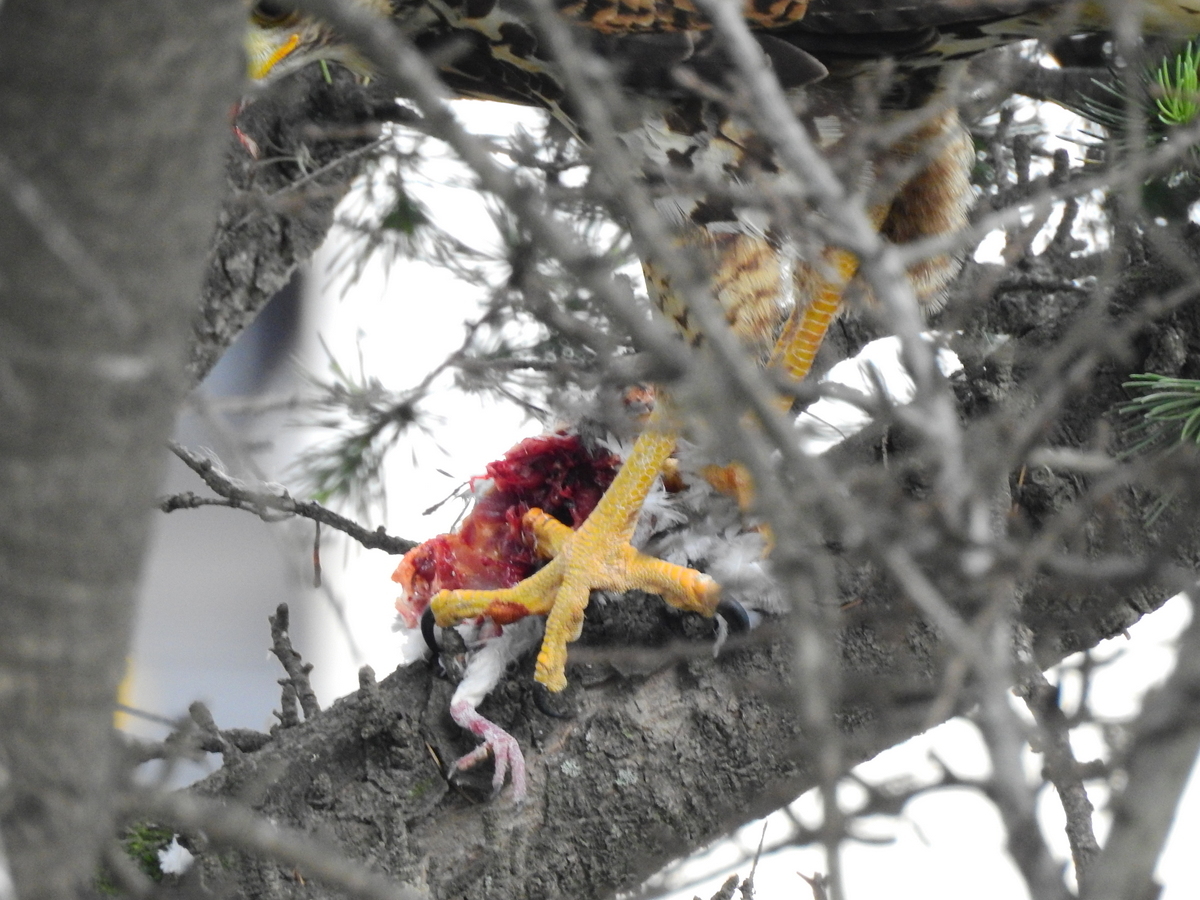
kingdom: Animalia
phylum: Chordata
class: Aves
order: Accipitriformes
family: Accipitridae
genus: Parabuteo
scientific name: Parabuteo unicinctus
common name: Harris's hawk
